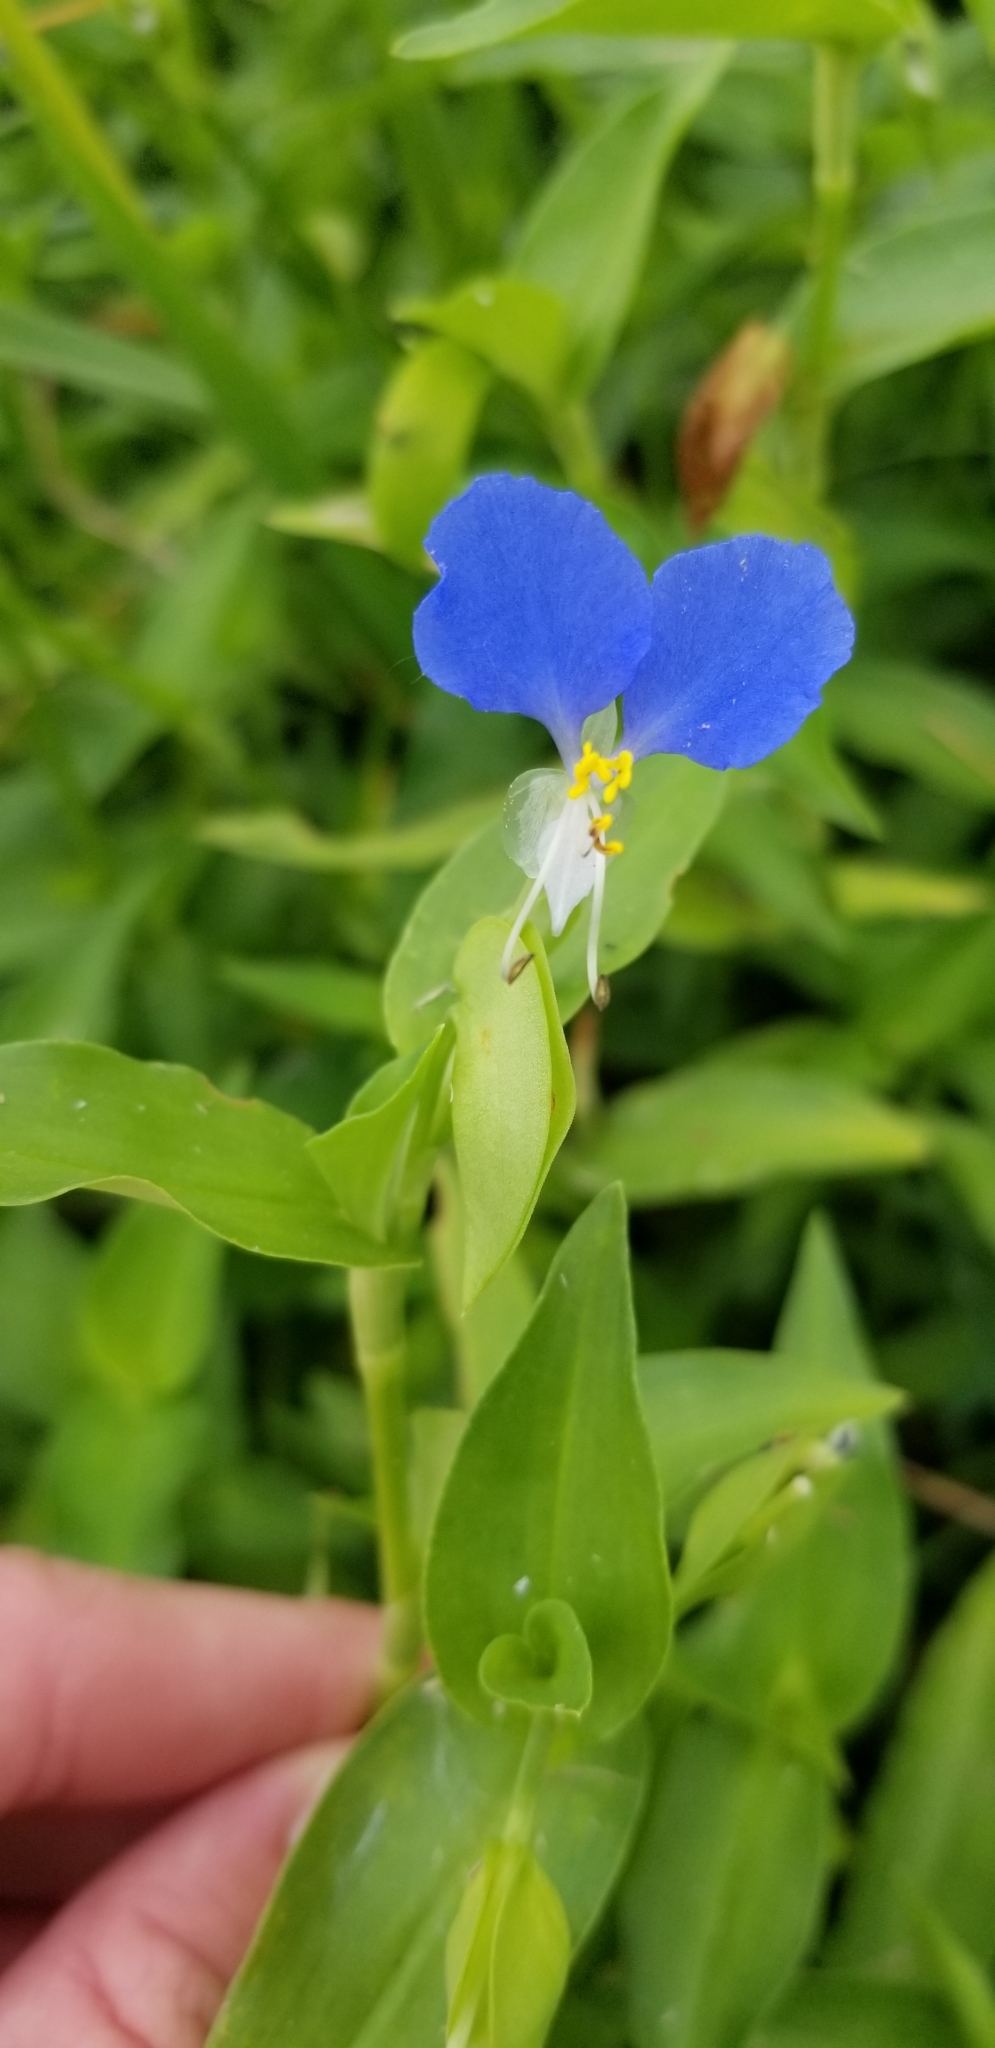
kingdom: Plantae
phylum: Tracheophyta
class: Liliopsida
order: Commelinales
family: Commelinaceae
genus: Commelina
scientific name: Commelina communis
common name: Asiatic dayflower
